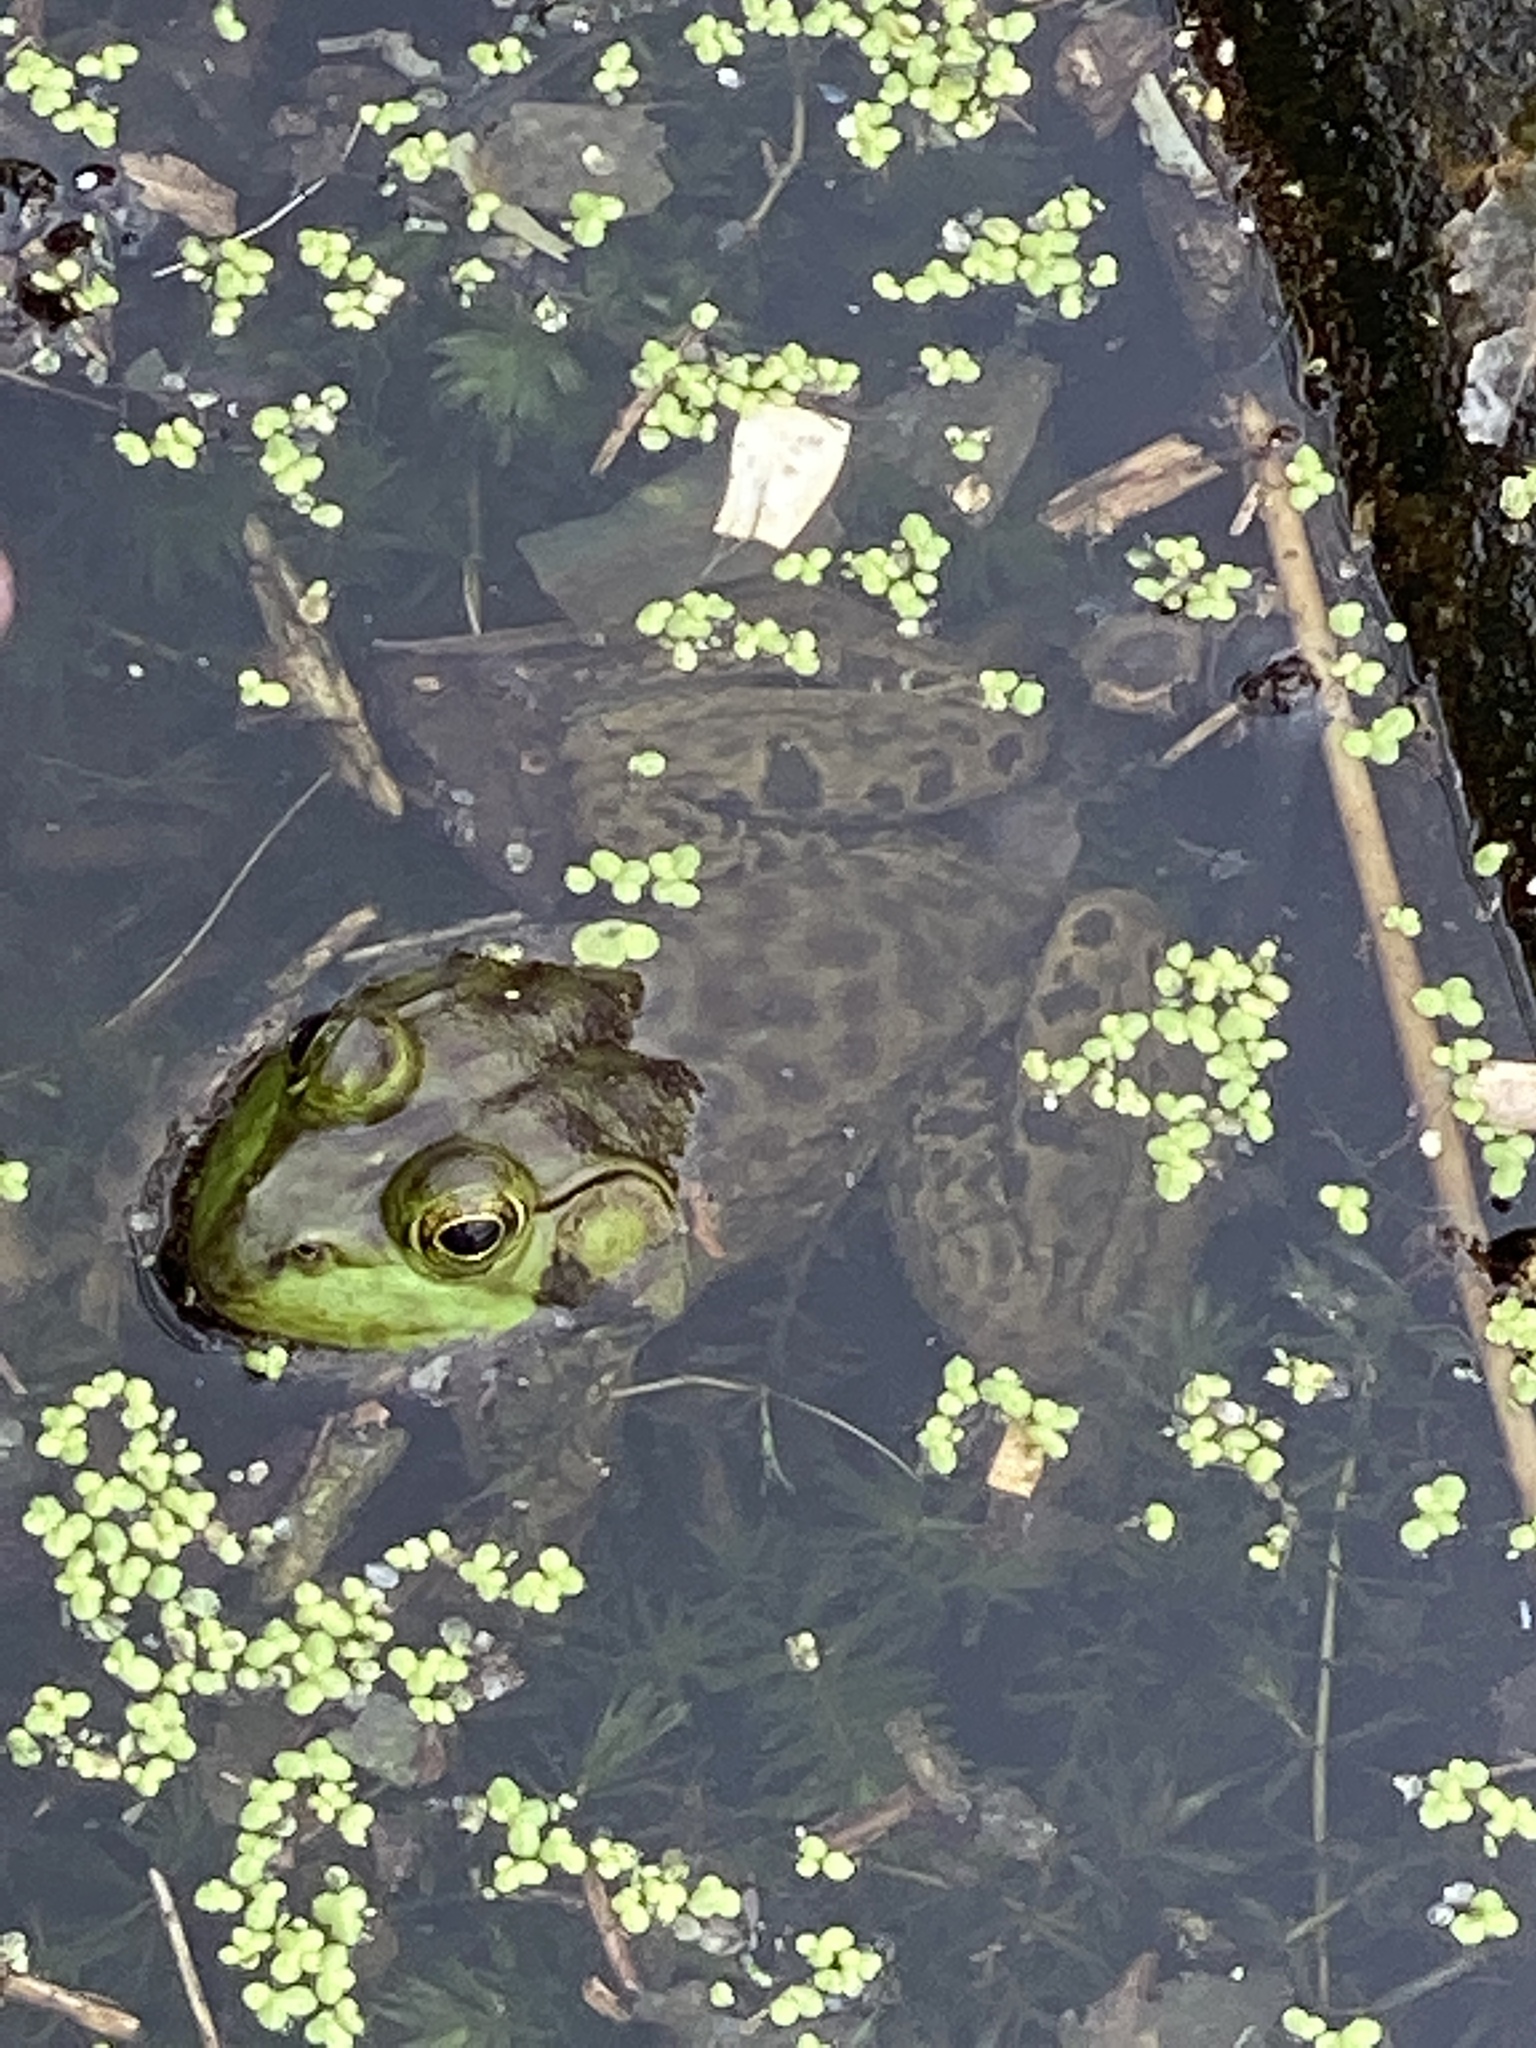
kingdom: Animalia
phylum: Chordata
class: Amphibia
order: Anura
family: Ranidae
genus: Lithobates
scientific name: Lithobates catesbeianus
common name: American bullfrog
